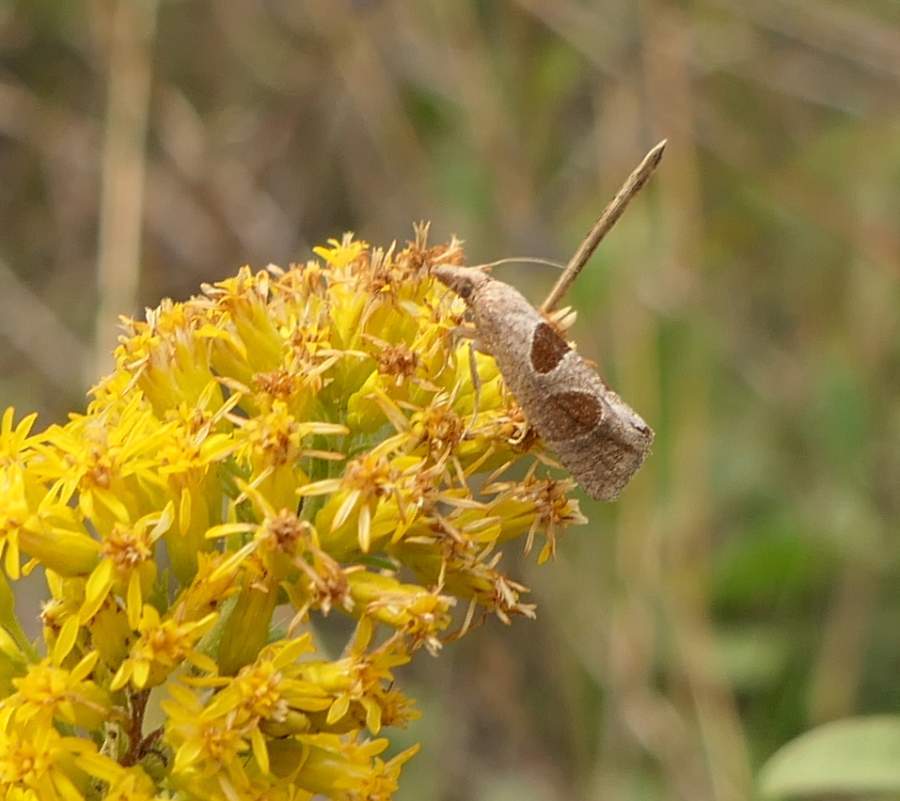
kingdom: Animalia
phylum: Arthropoda
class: Insecta
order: Lepidoptera
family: Tortricidae
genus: Pelochrista
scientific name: Pelochrista dorsisignatana
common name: Triangle-backed pelochrista moth
